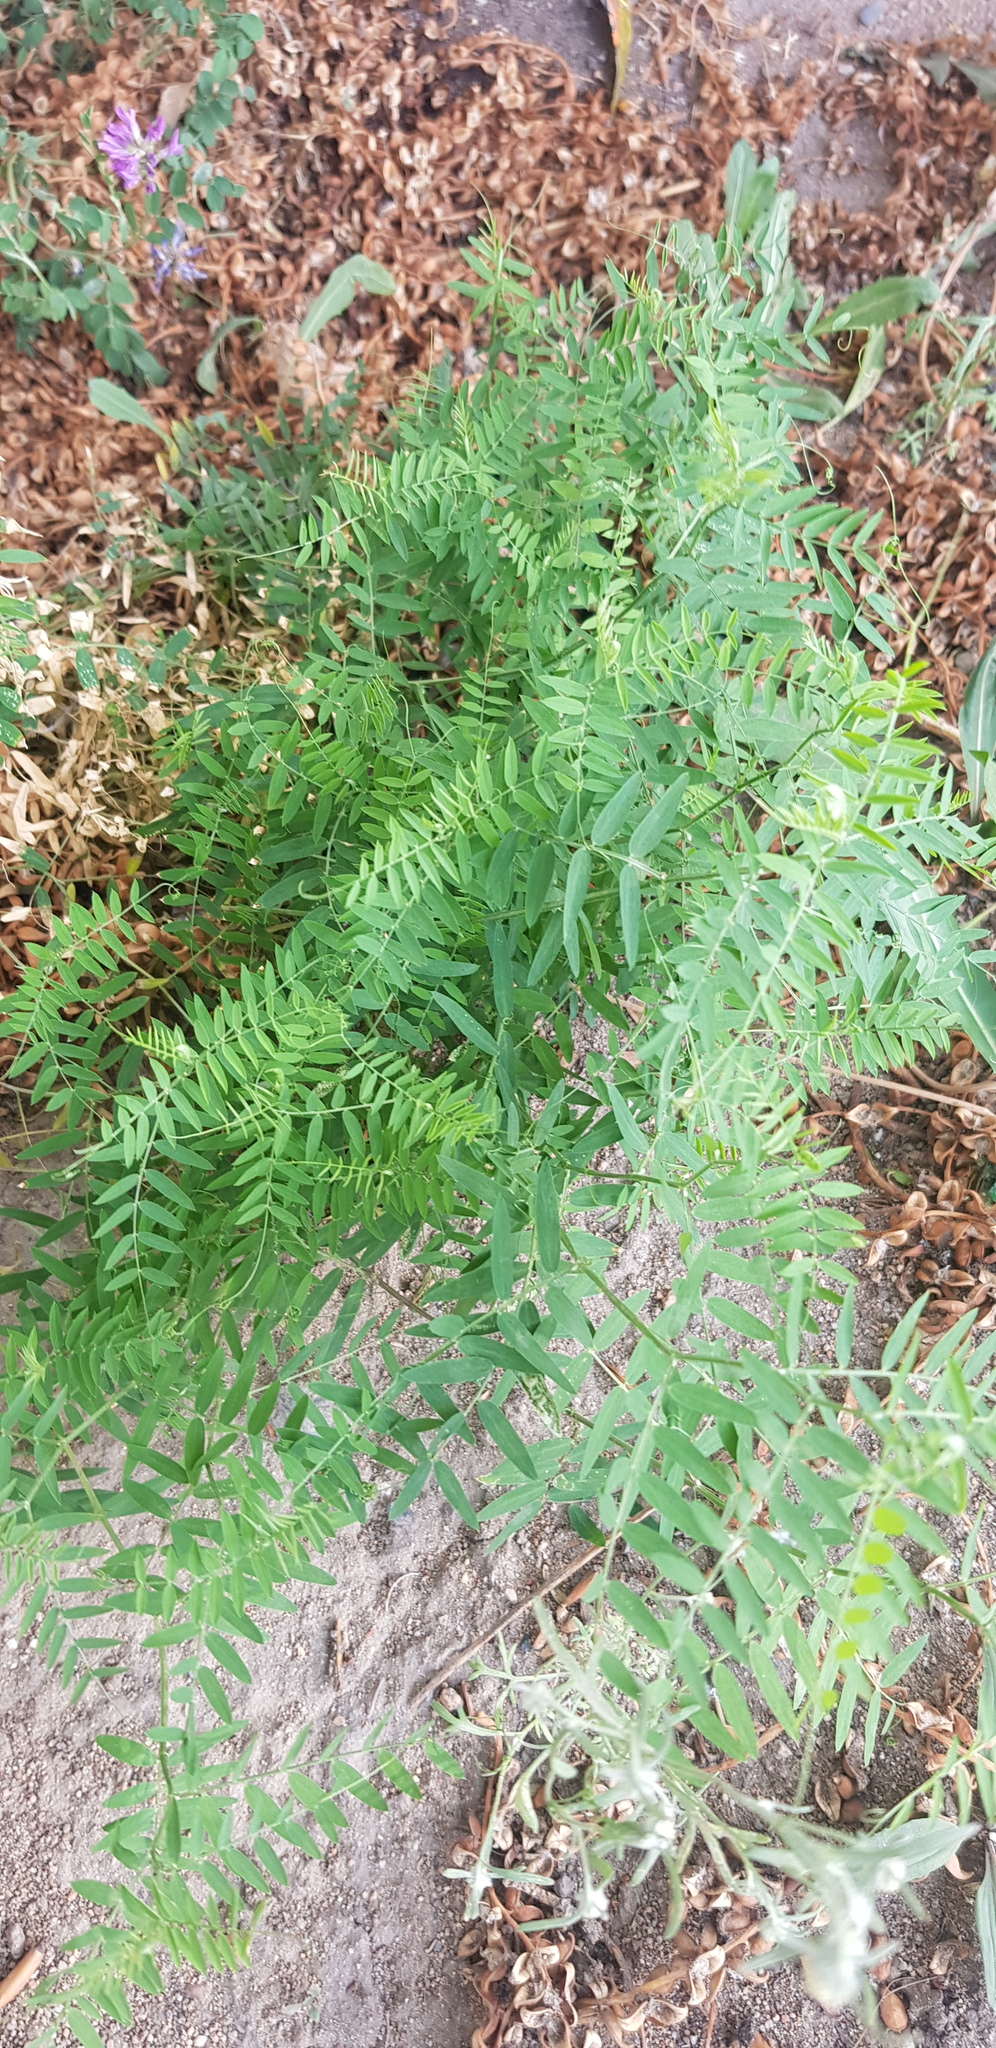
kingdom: Plantae
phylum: Tracheophyta
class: Magnoliopsida
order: Fabales
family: Fabaceae
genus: Vicia
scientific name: Vicia cracca
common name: Bird vetch
